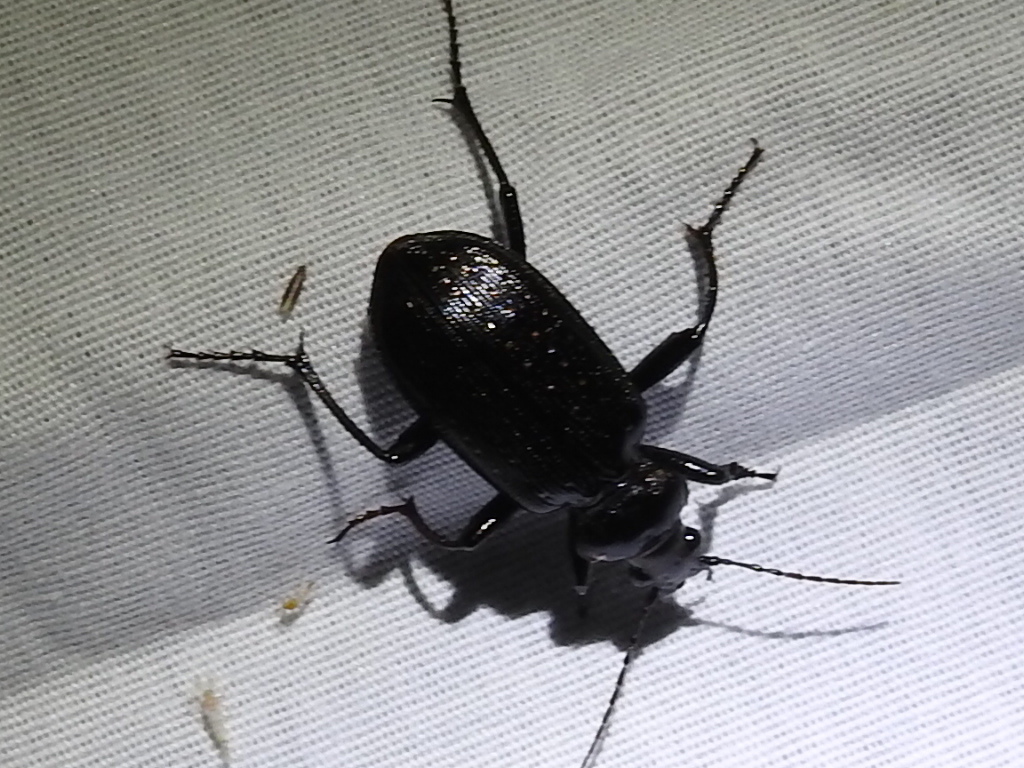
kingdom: Animalia
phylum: Arthropoda
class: Insecta
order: Coleoptera
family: Carabidae
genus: Calosoma
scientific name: Calosoma sayi
